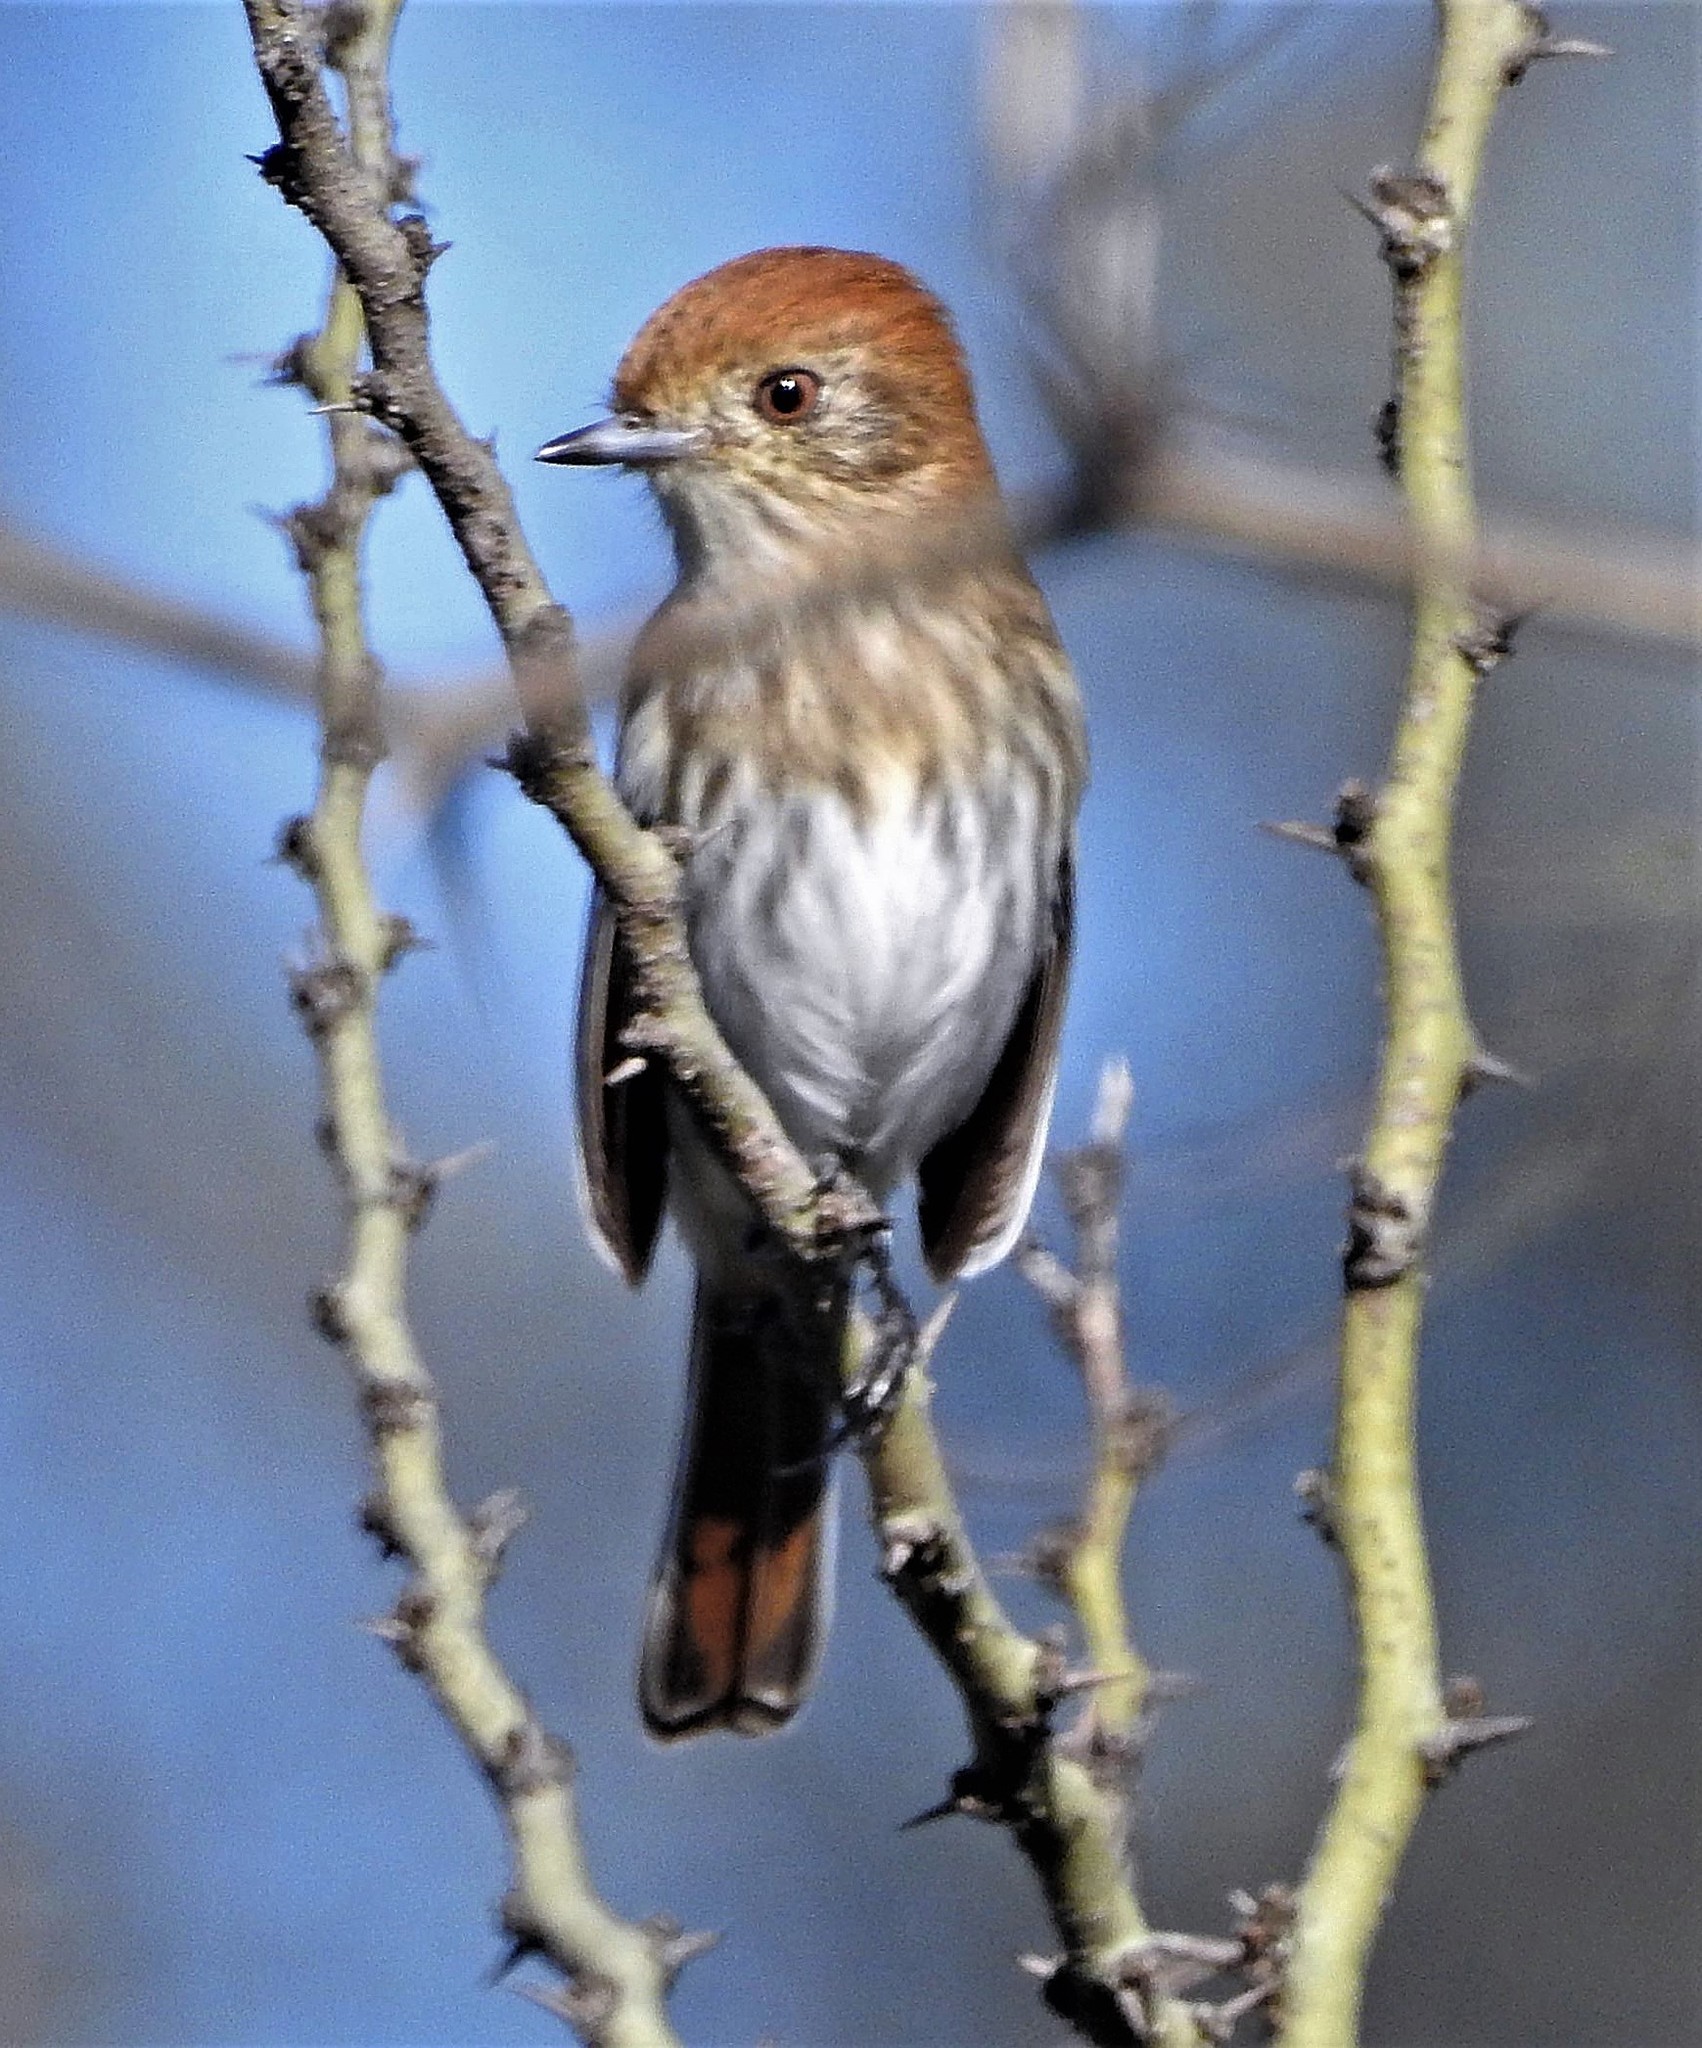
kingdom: Animalia
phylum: Chordata
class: Aves
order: Passeriformes
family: Tyrannidae
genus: Knipolegus
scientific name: Knipolegus striaticeps
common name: Cinereous tyrant
